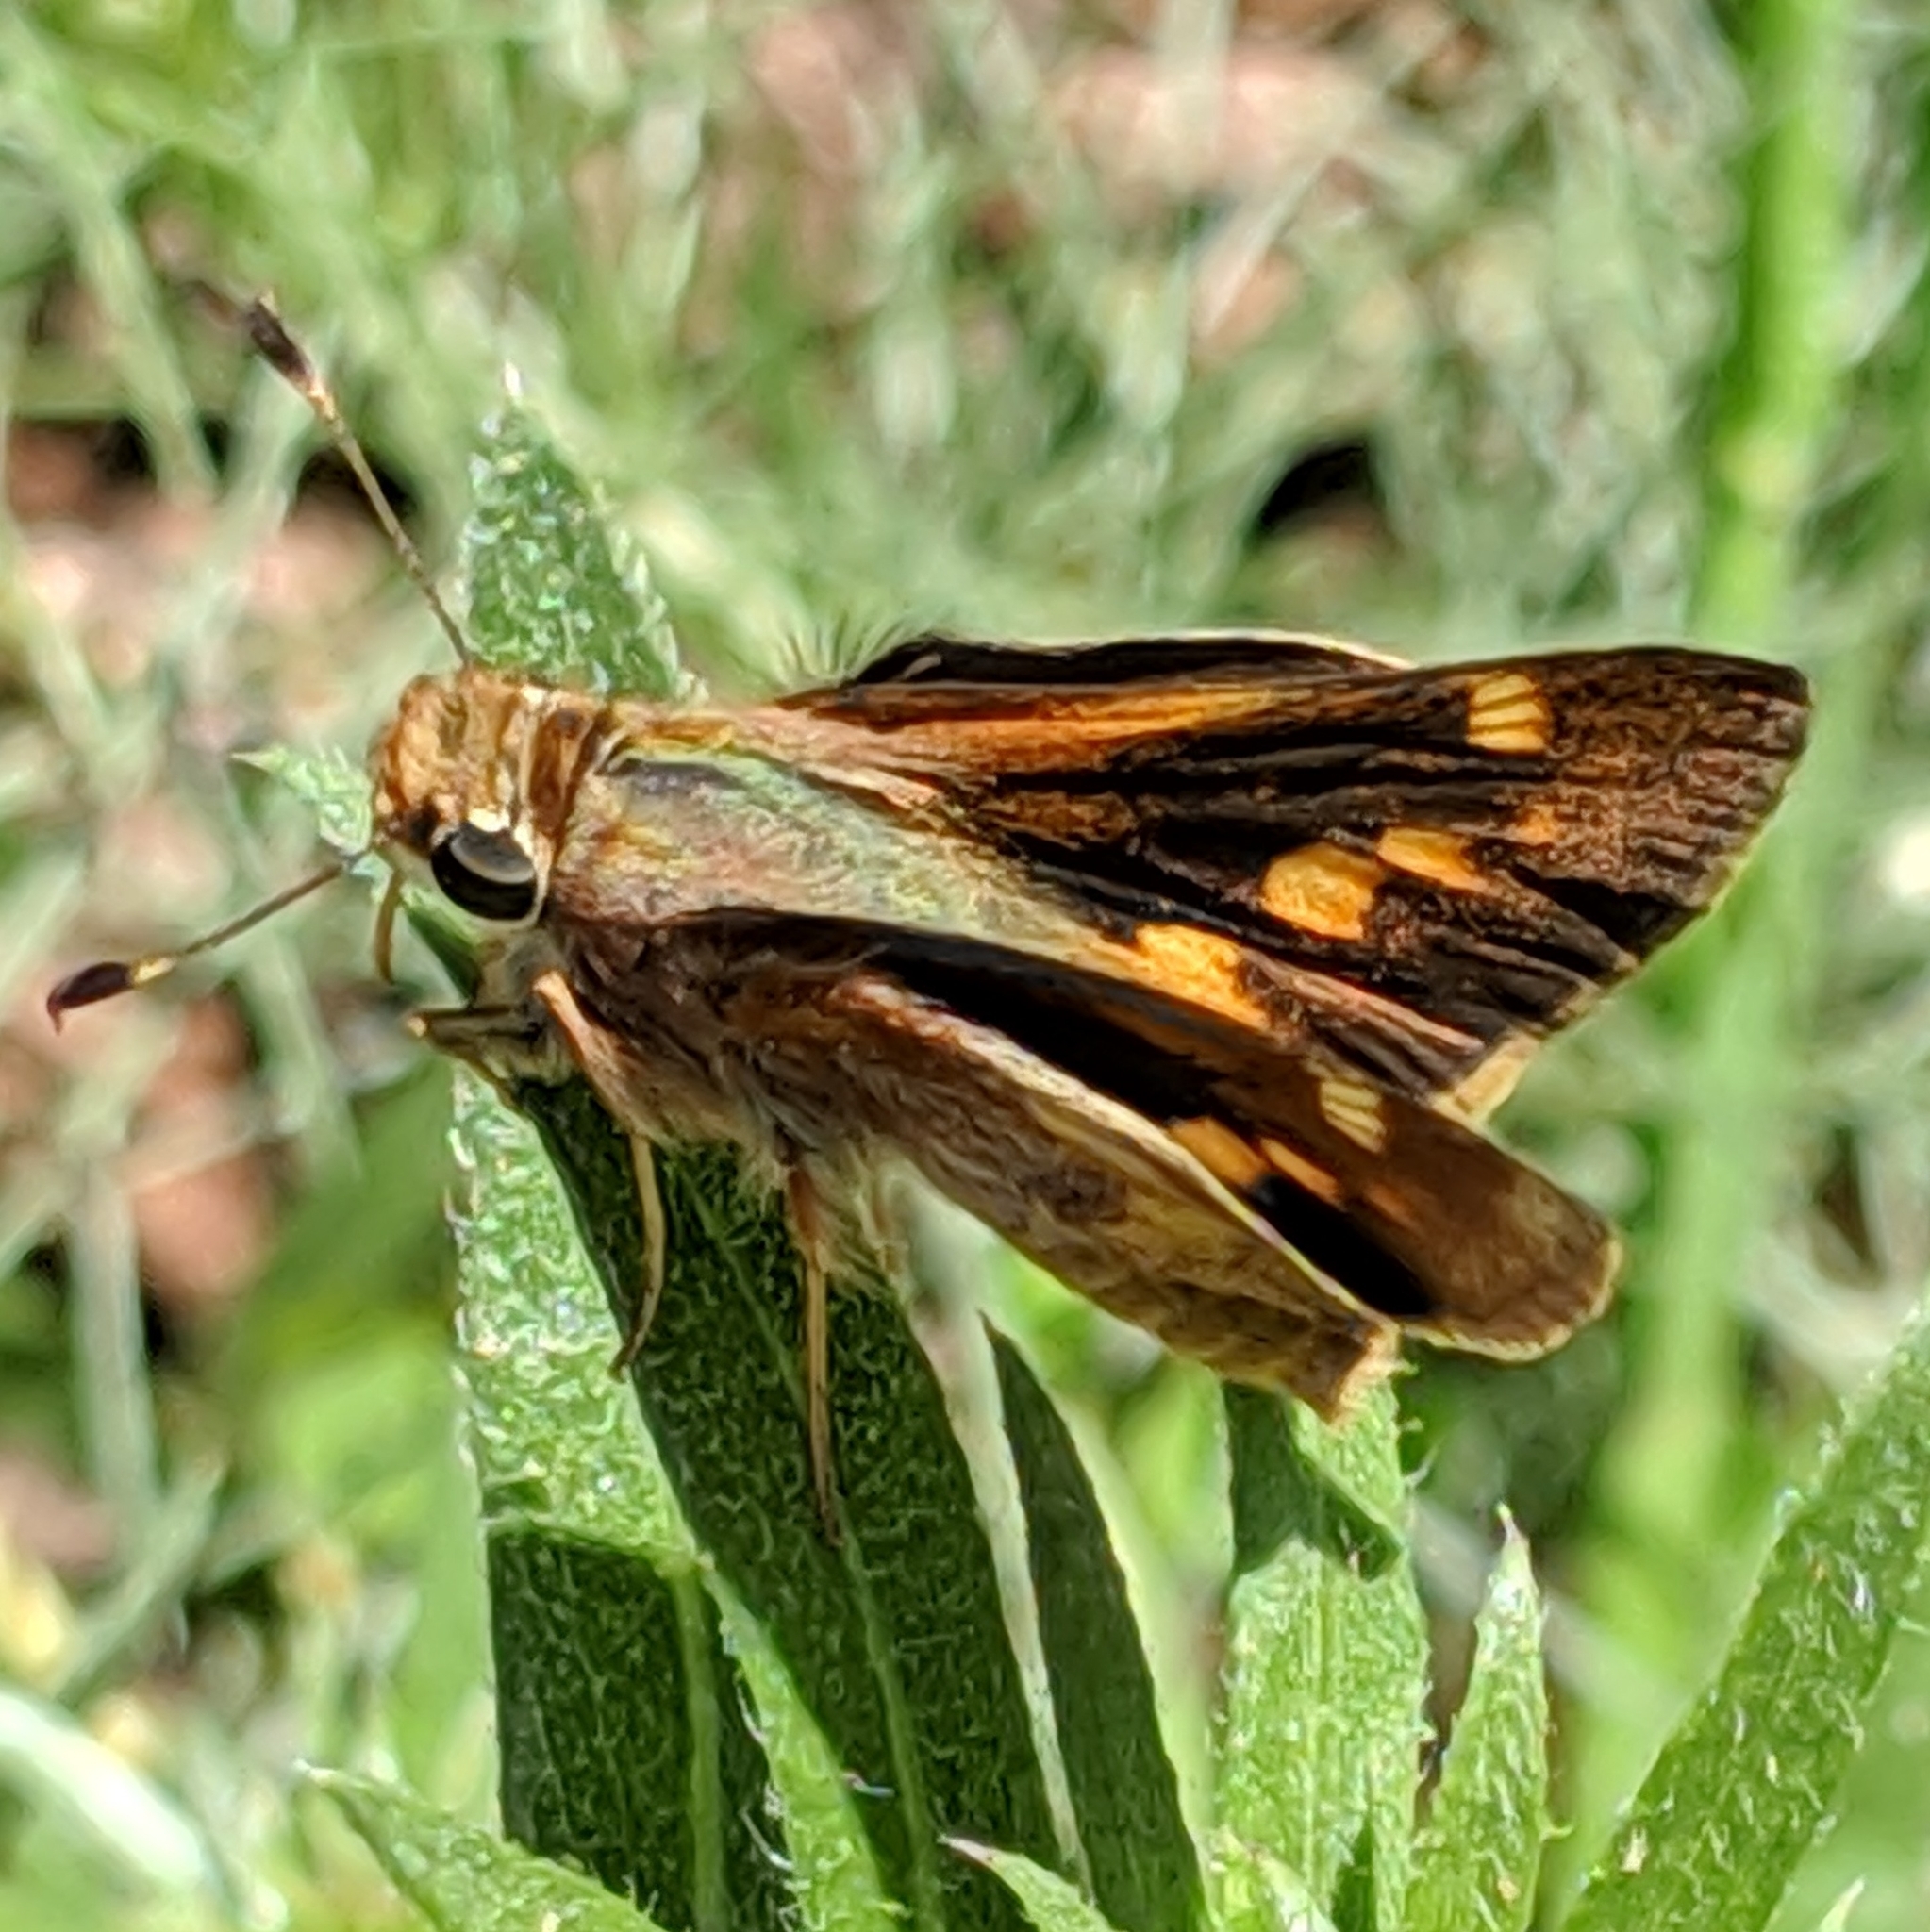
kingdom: Animalia
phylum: Arthropoda
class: Insecta
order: Lepidoptera
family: Hesperiidae
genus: Lon
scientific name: Lon melane
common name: Umber skipper
